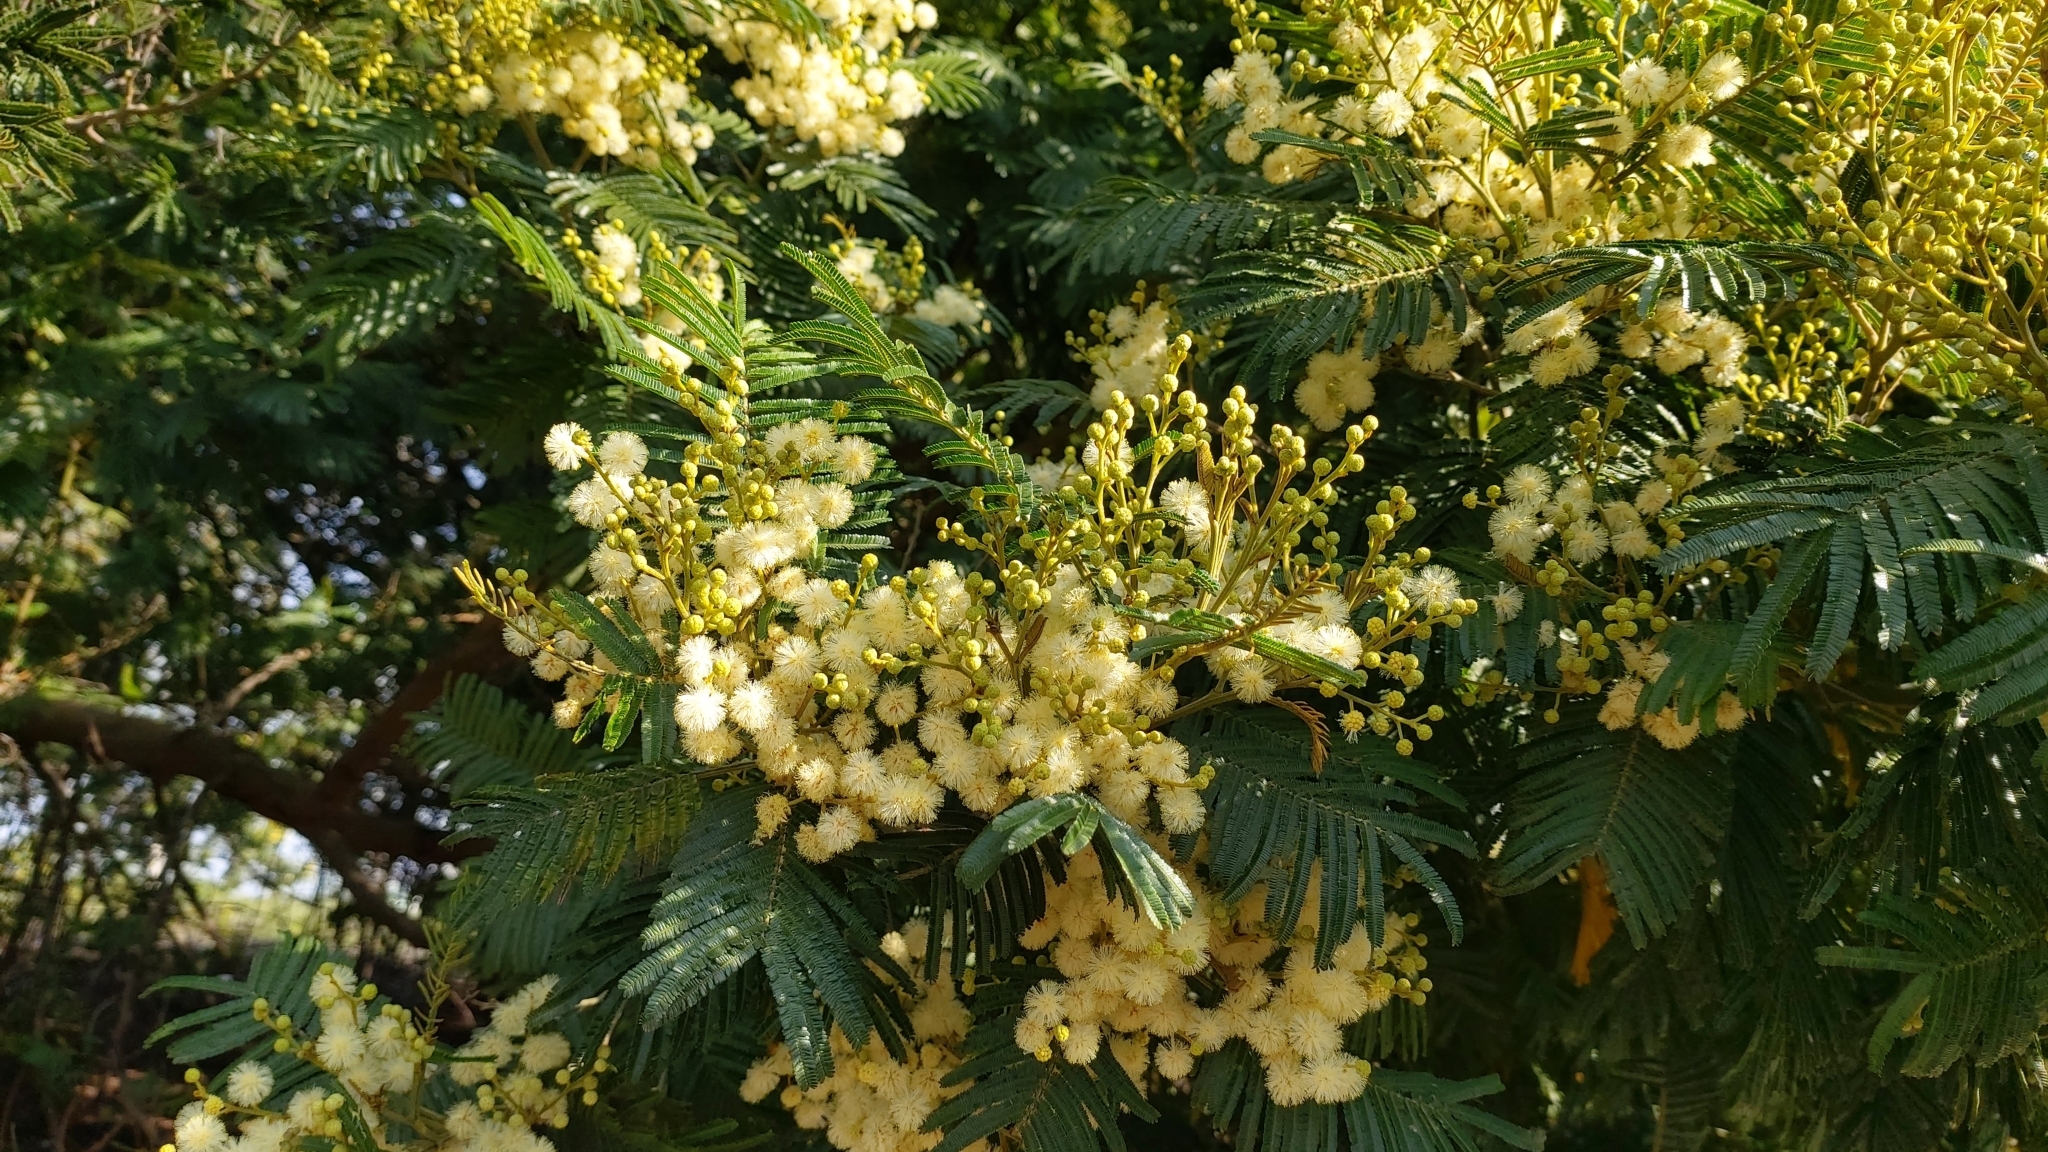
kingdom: Plantae
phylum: Tracheophyta
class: Magnoliopsida
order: Fabales
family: Fabaceae
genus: Acacia
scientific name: Acacia mearnsii
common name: Black wattle
